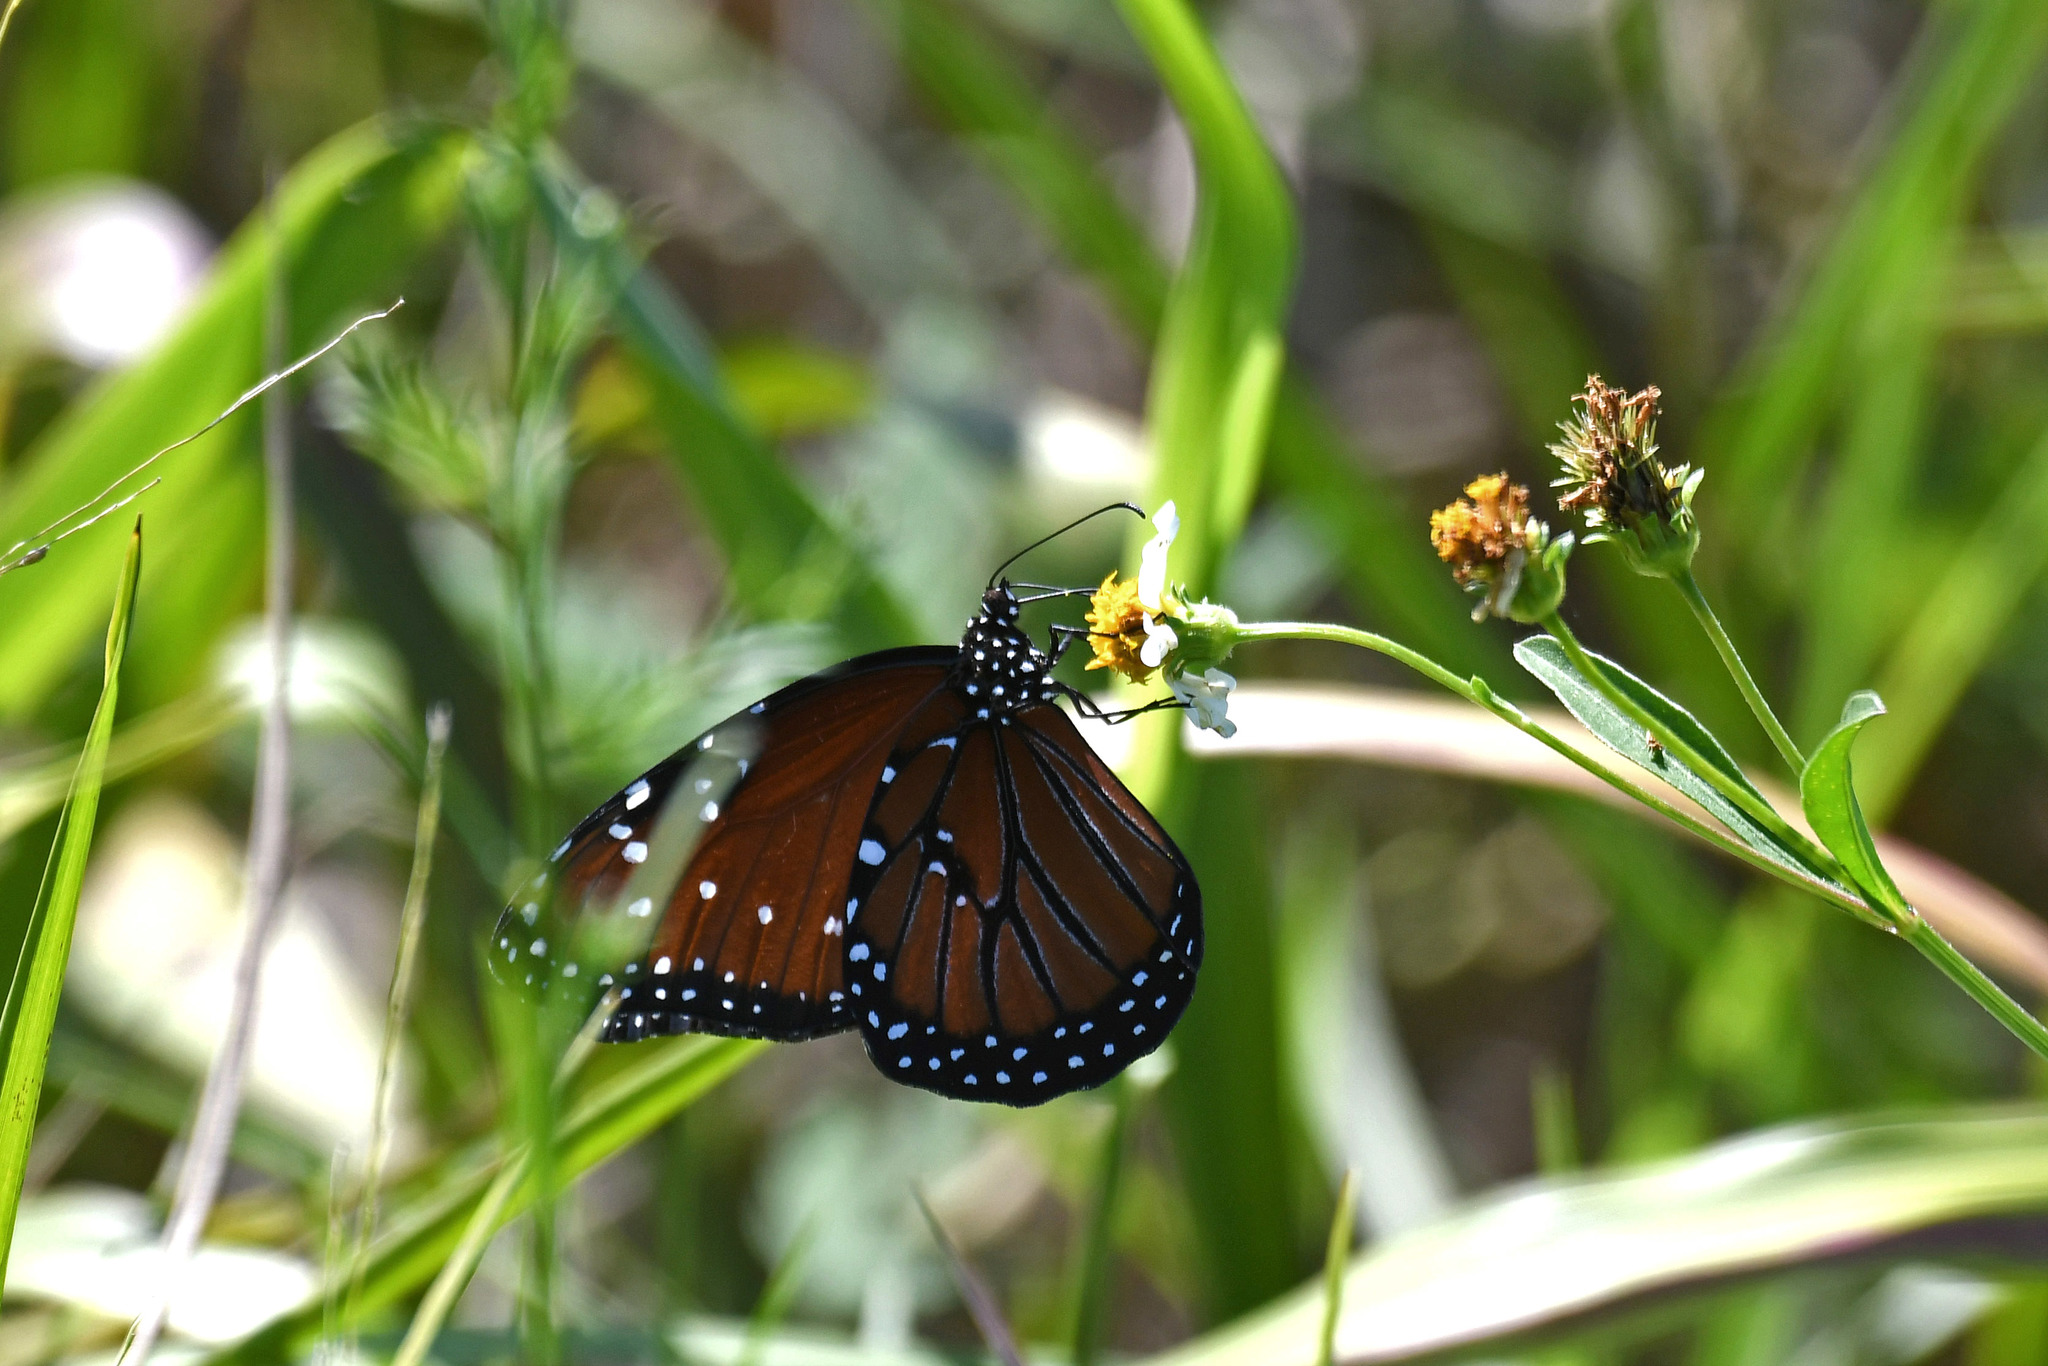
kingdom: Animalia
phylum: Arthropoda
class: Insecta
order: Lepidoptera
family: Nymphalidae
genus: Danaus
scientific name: Danaus gilippus
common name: Queen
